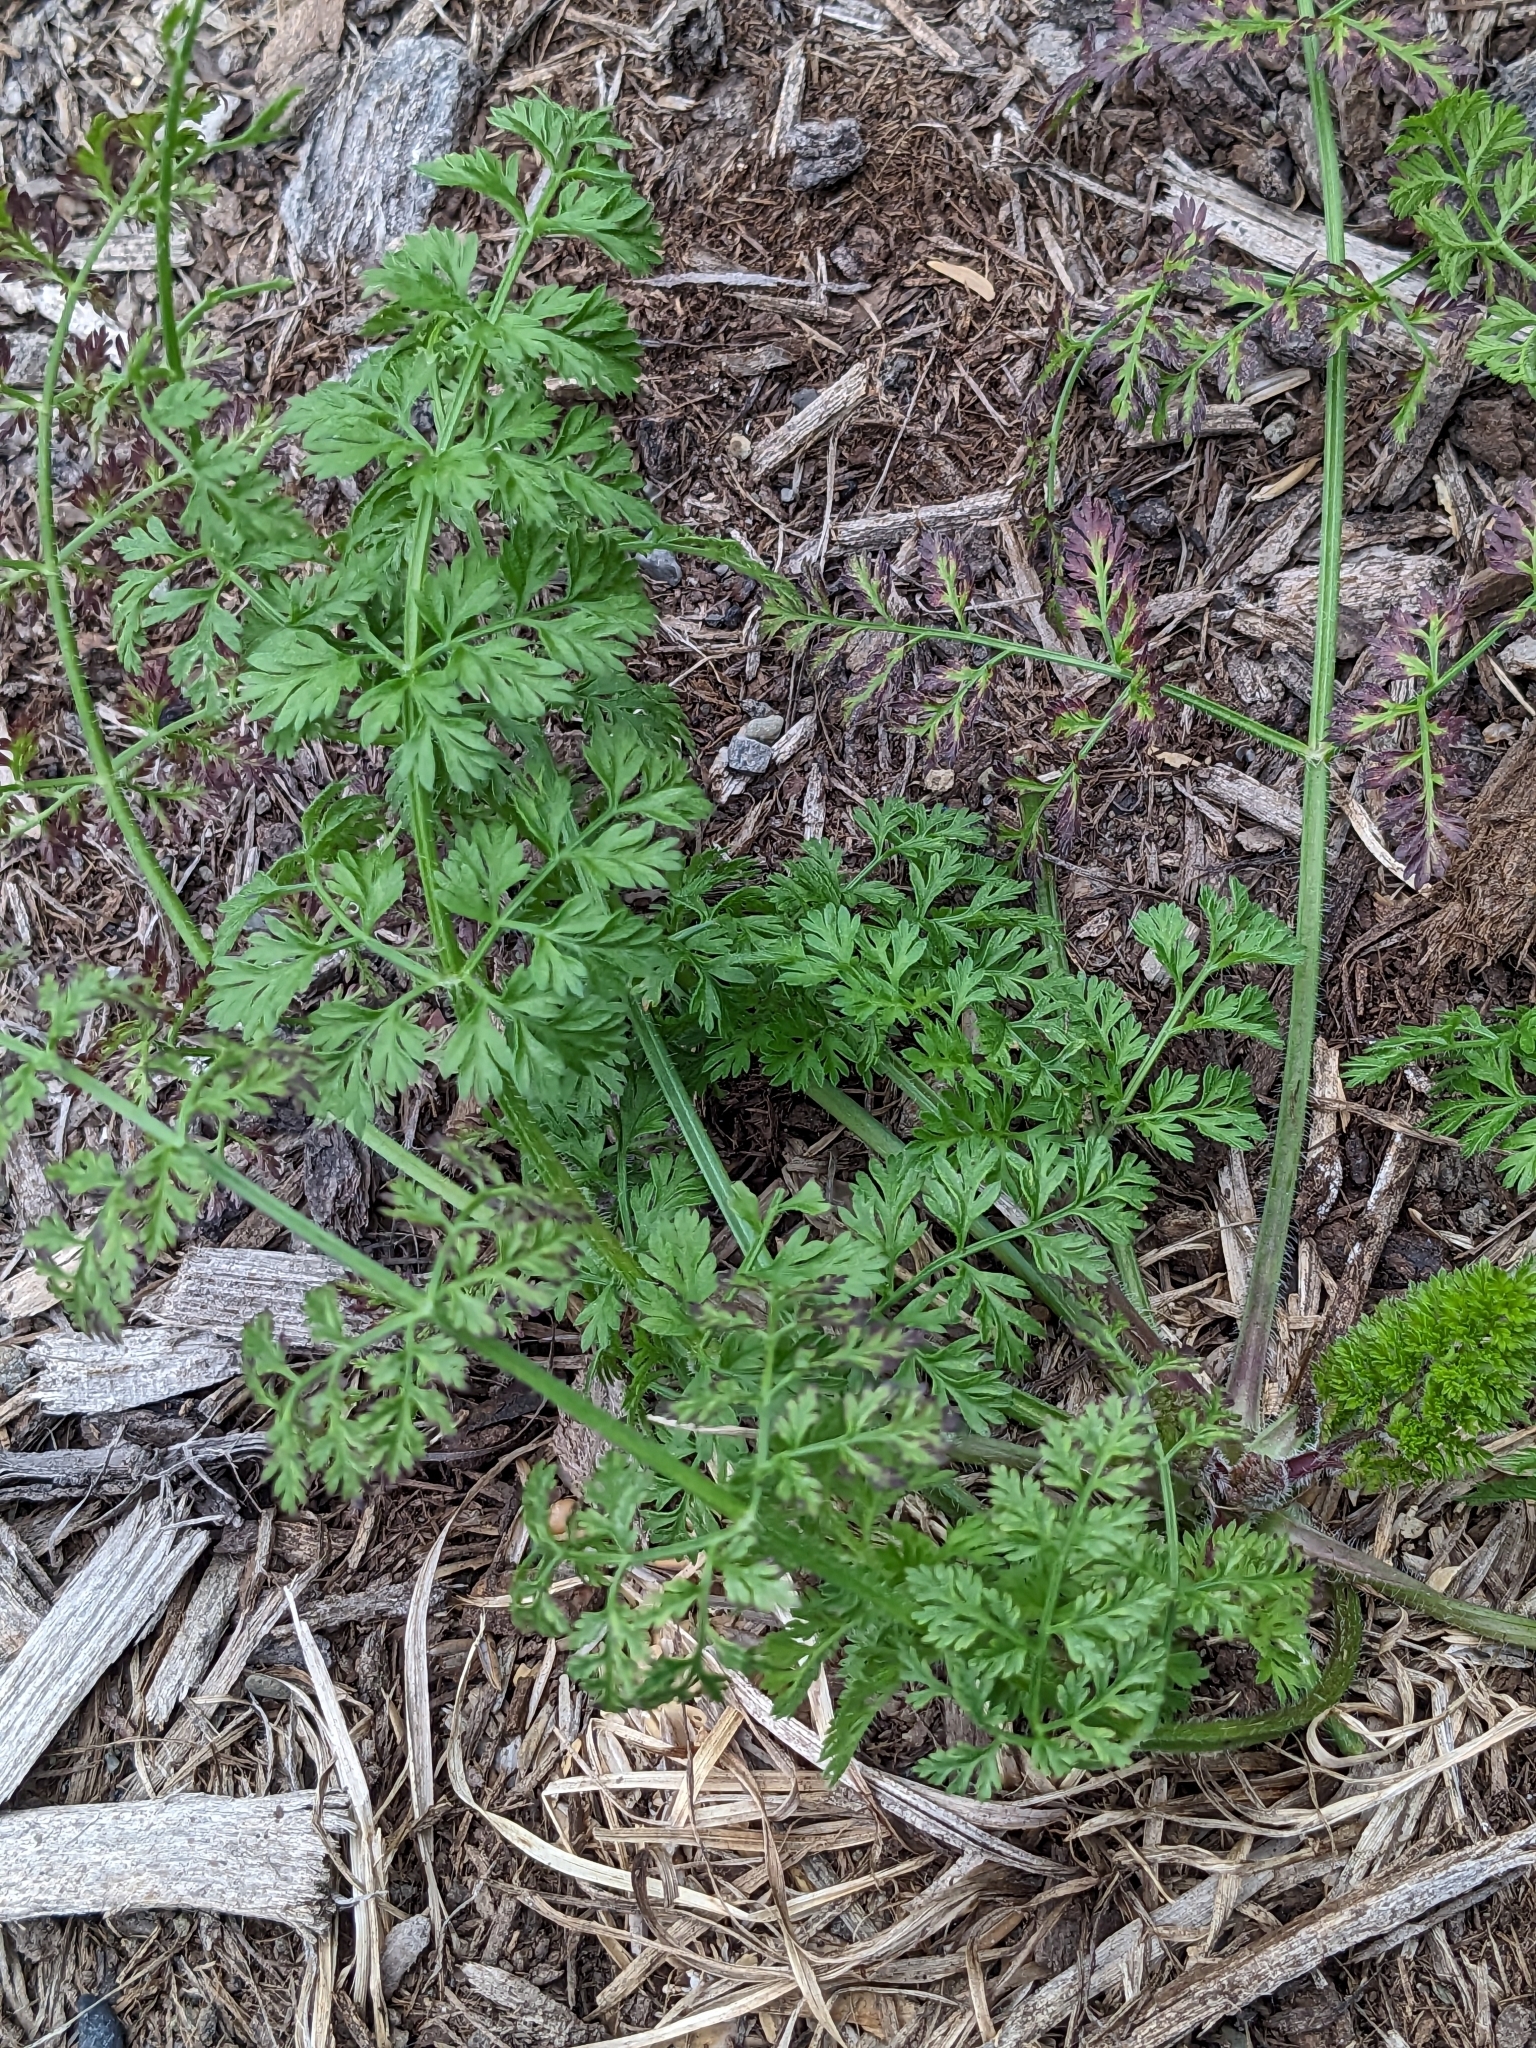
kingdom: Plantae
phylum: Tracheophyta
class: Magnoliopsida
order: Apiales
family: Apiaceae
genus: Daucus
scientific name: Daucus carota
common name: Wild carrot
